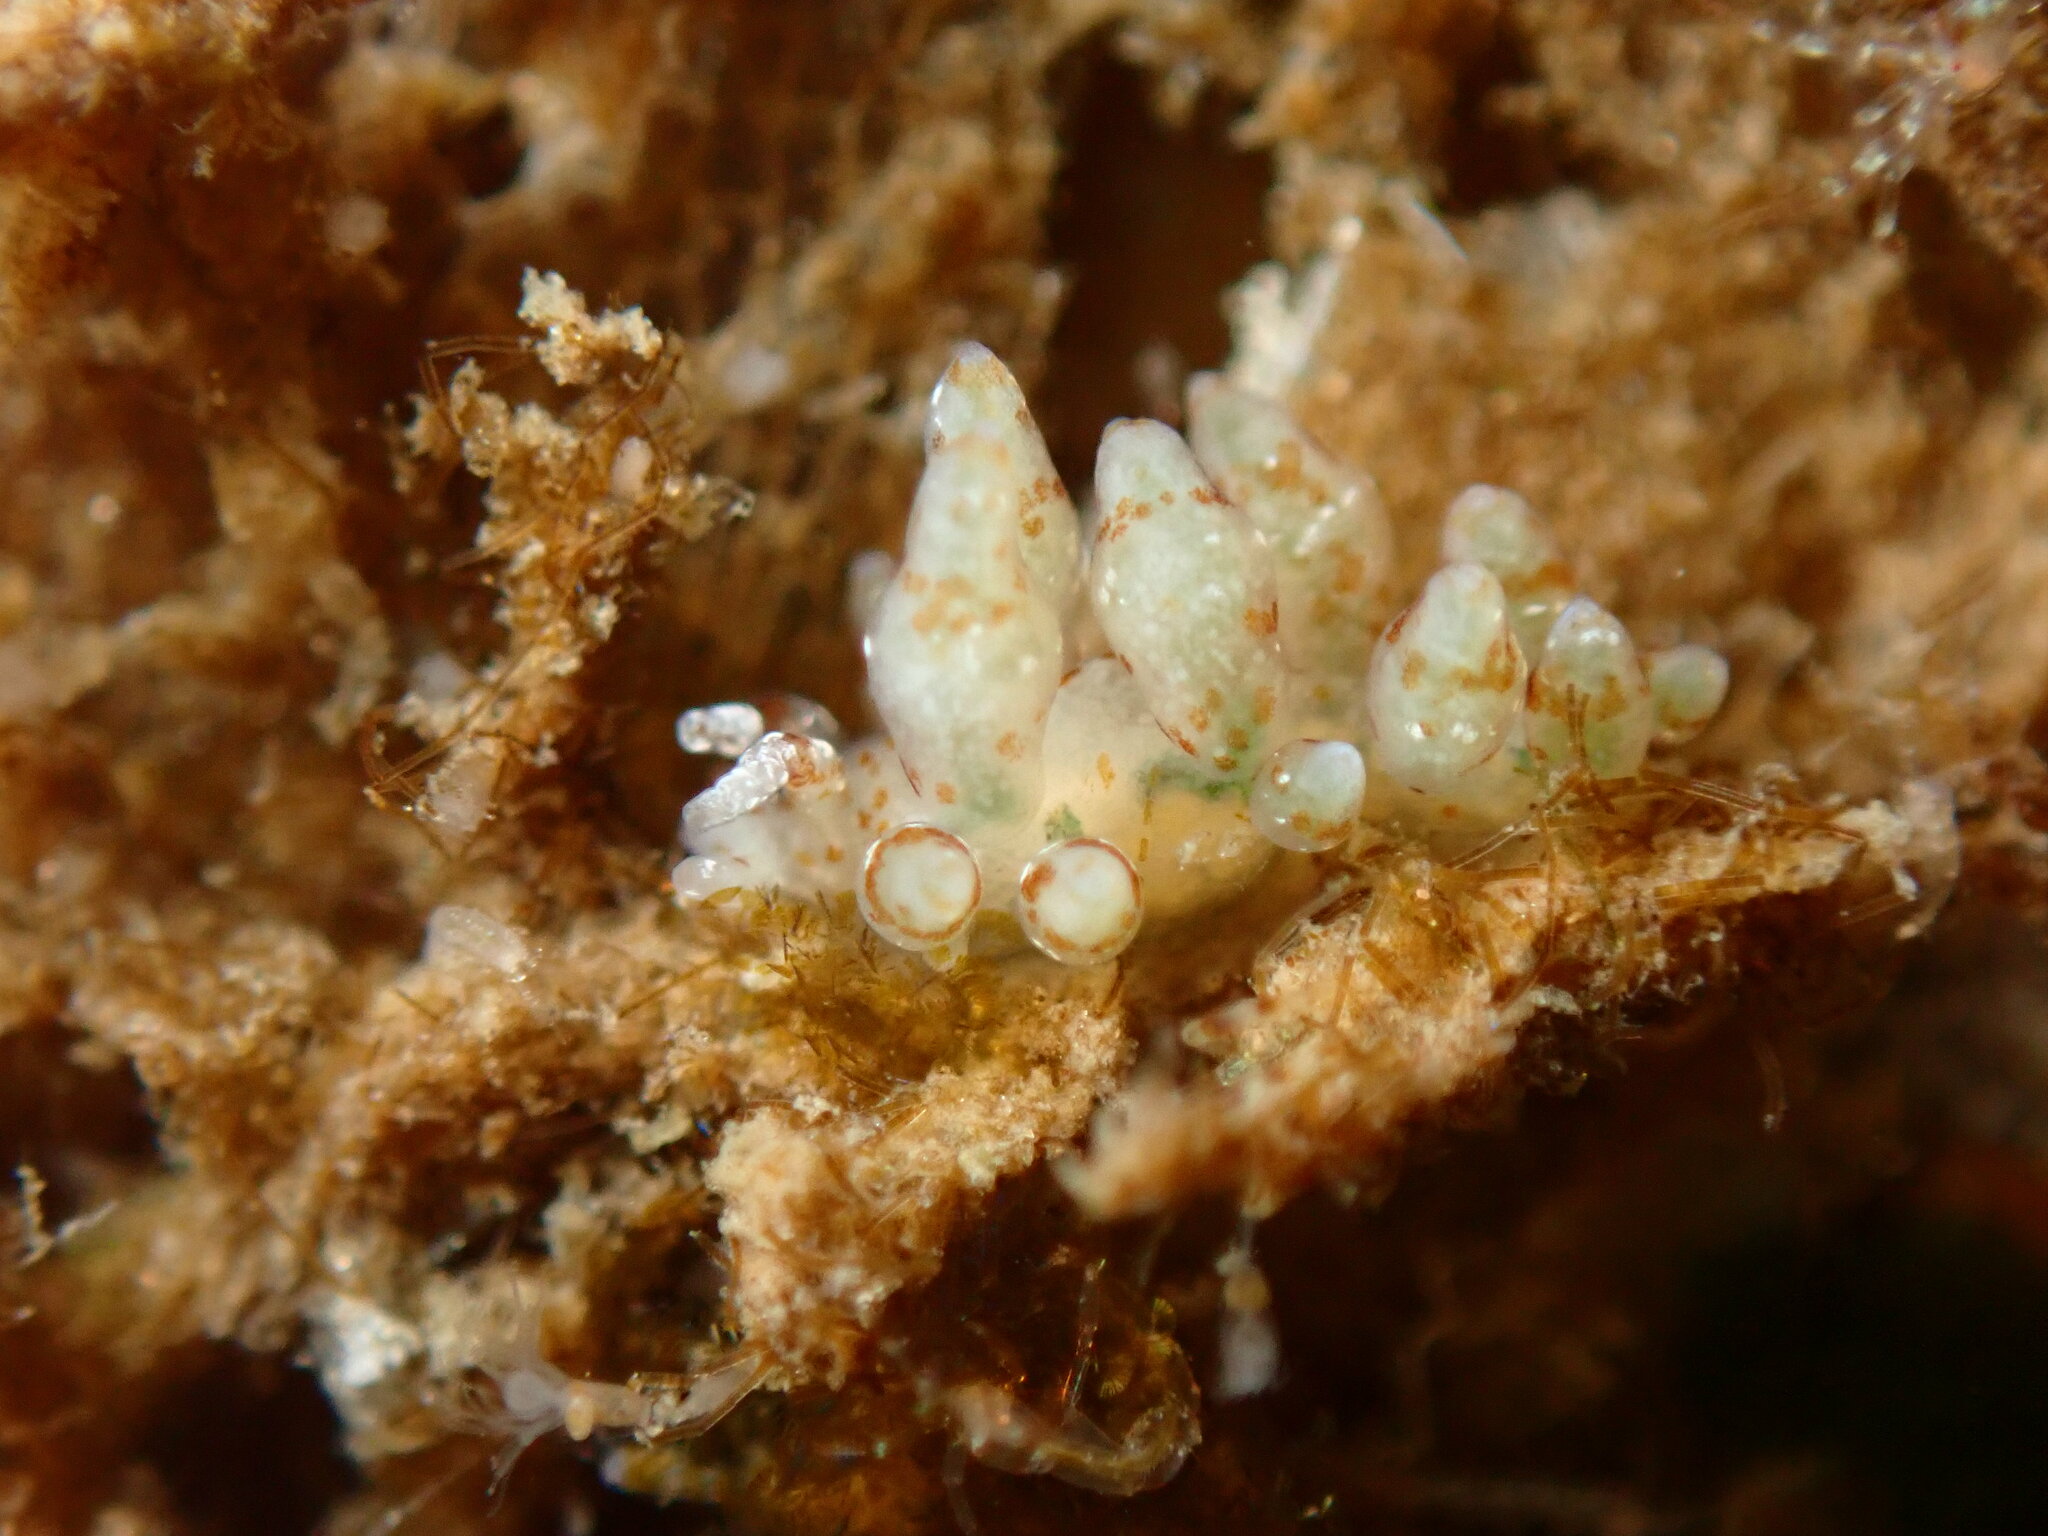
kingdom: Animalia
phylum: Mollusca
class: Gastropoda
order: Nudibranchia
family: Eubranchidae
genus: Eubranchus
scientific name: Eubranchus olivaceus
